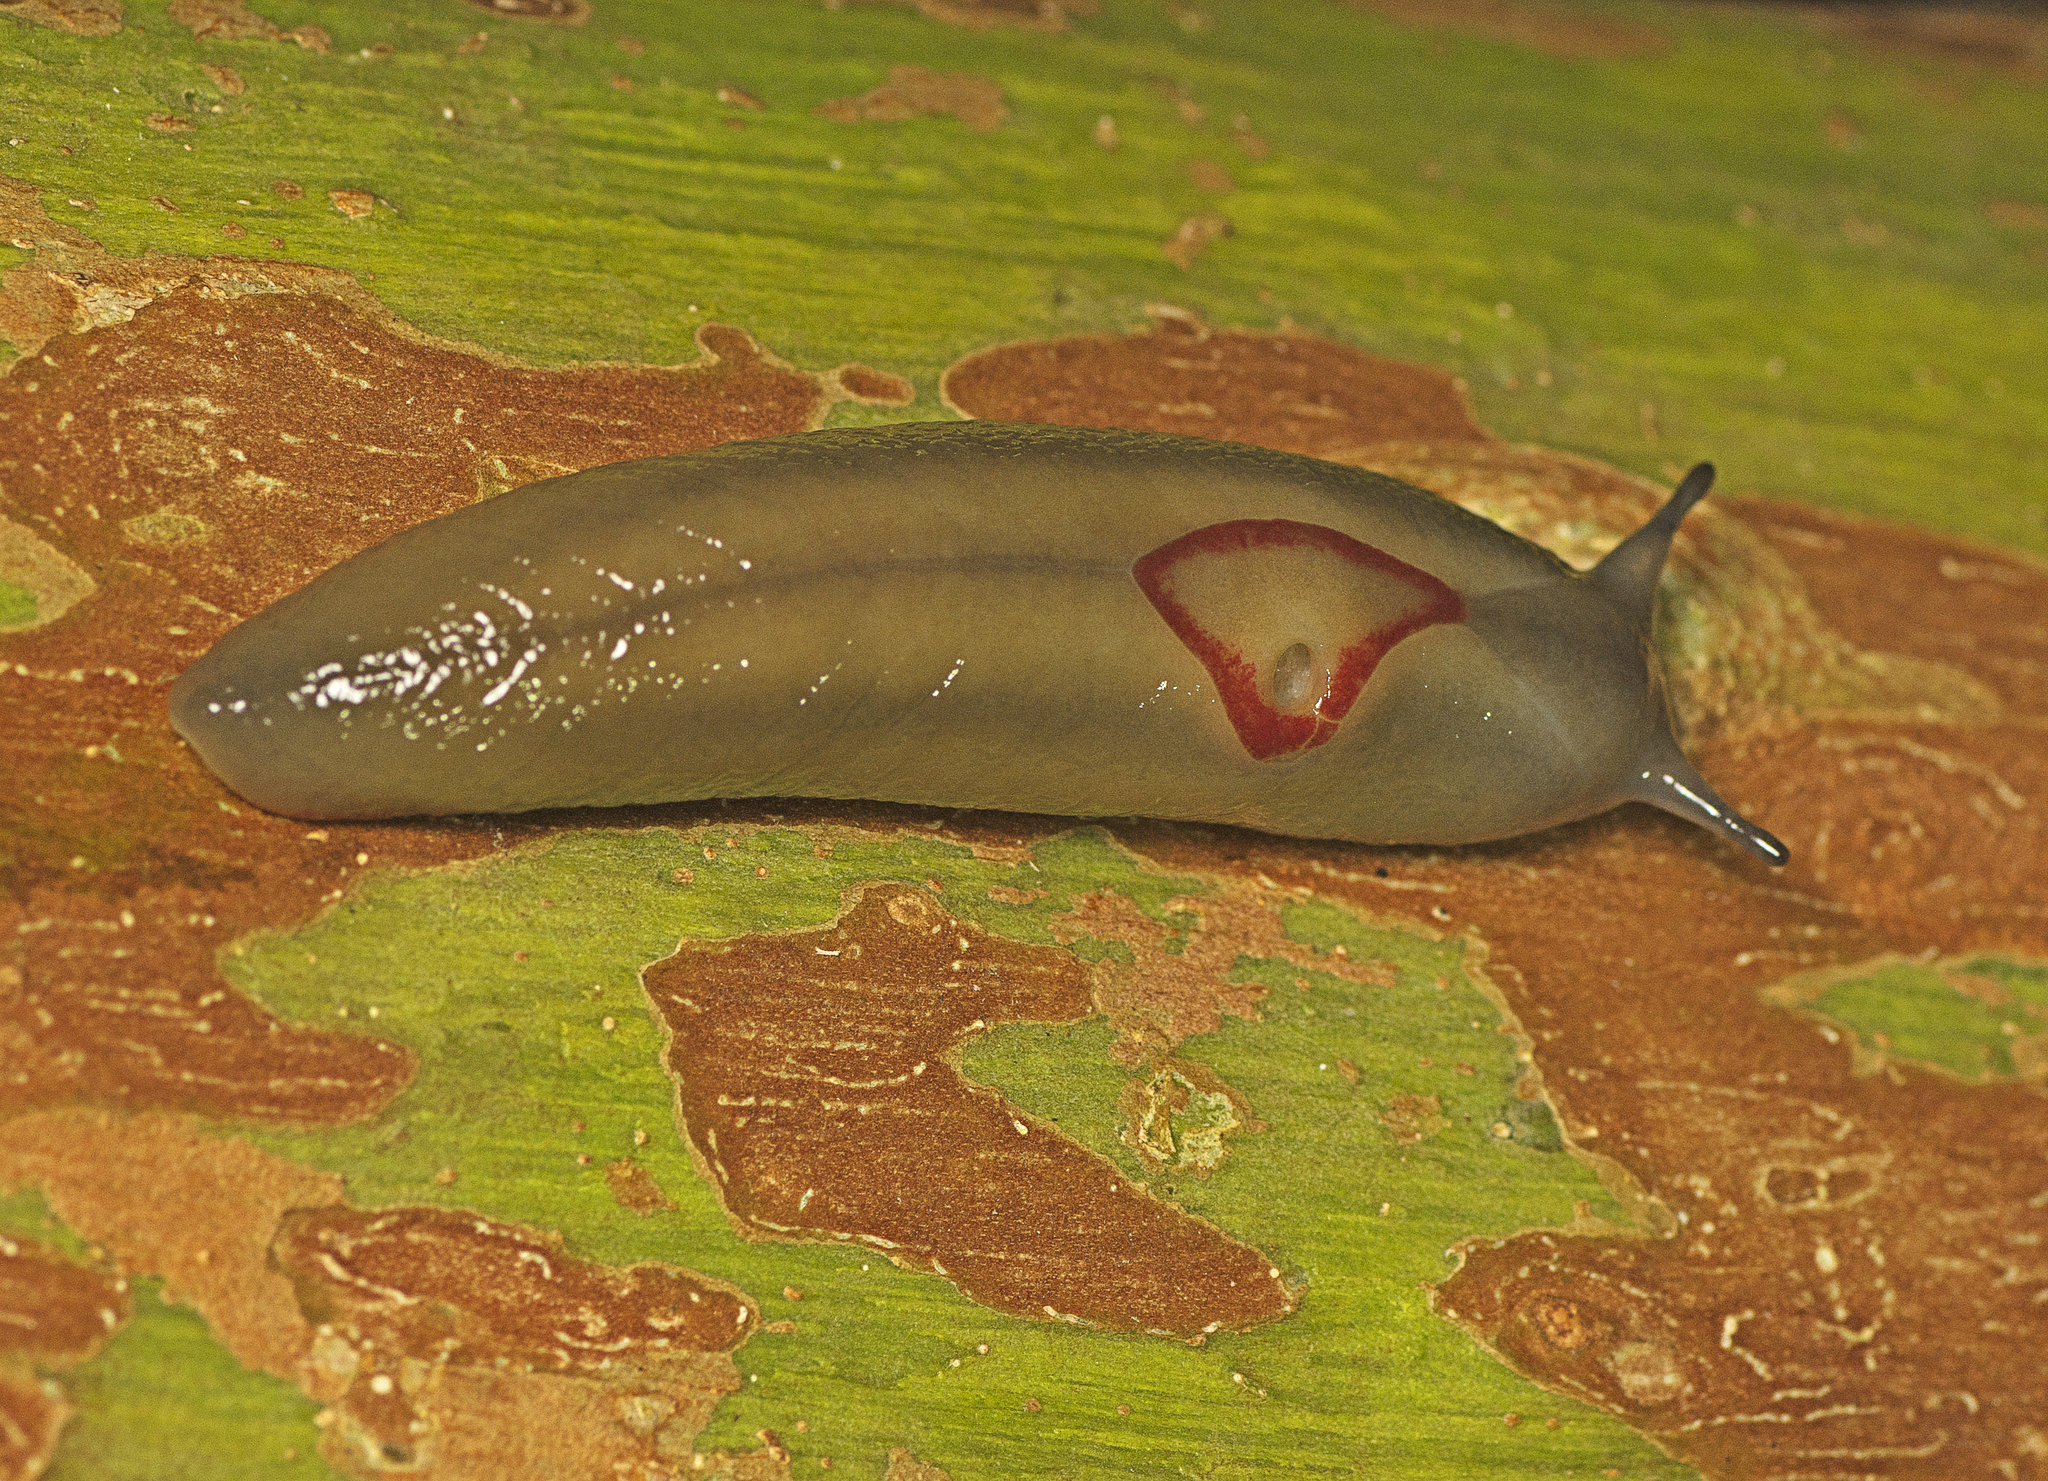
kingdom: Animalia
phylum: Mollusca
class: Gastropoda
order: Stylommatophora
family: Athoracophoridae
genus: Triboniophorus
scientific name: Triboniophorus graeffei
